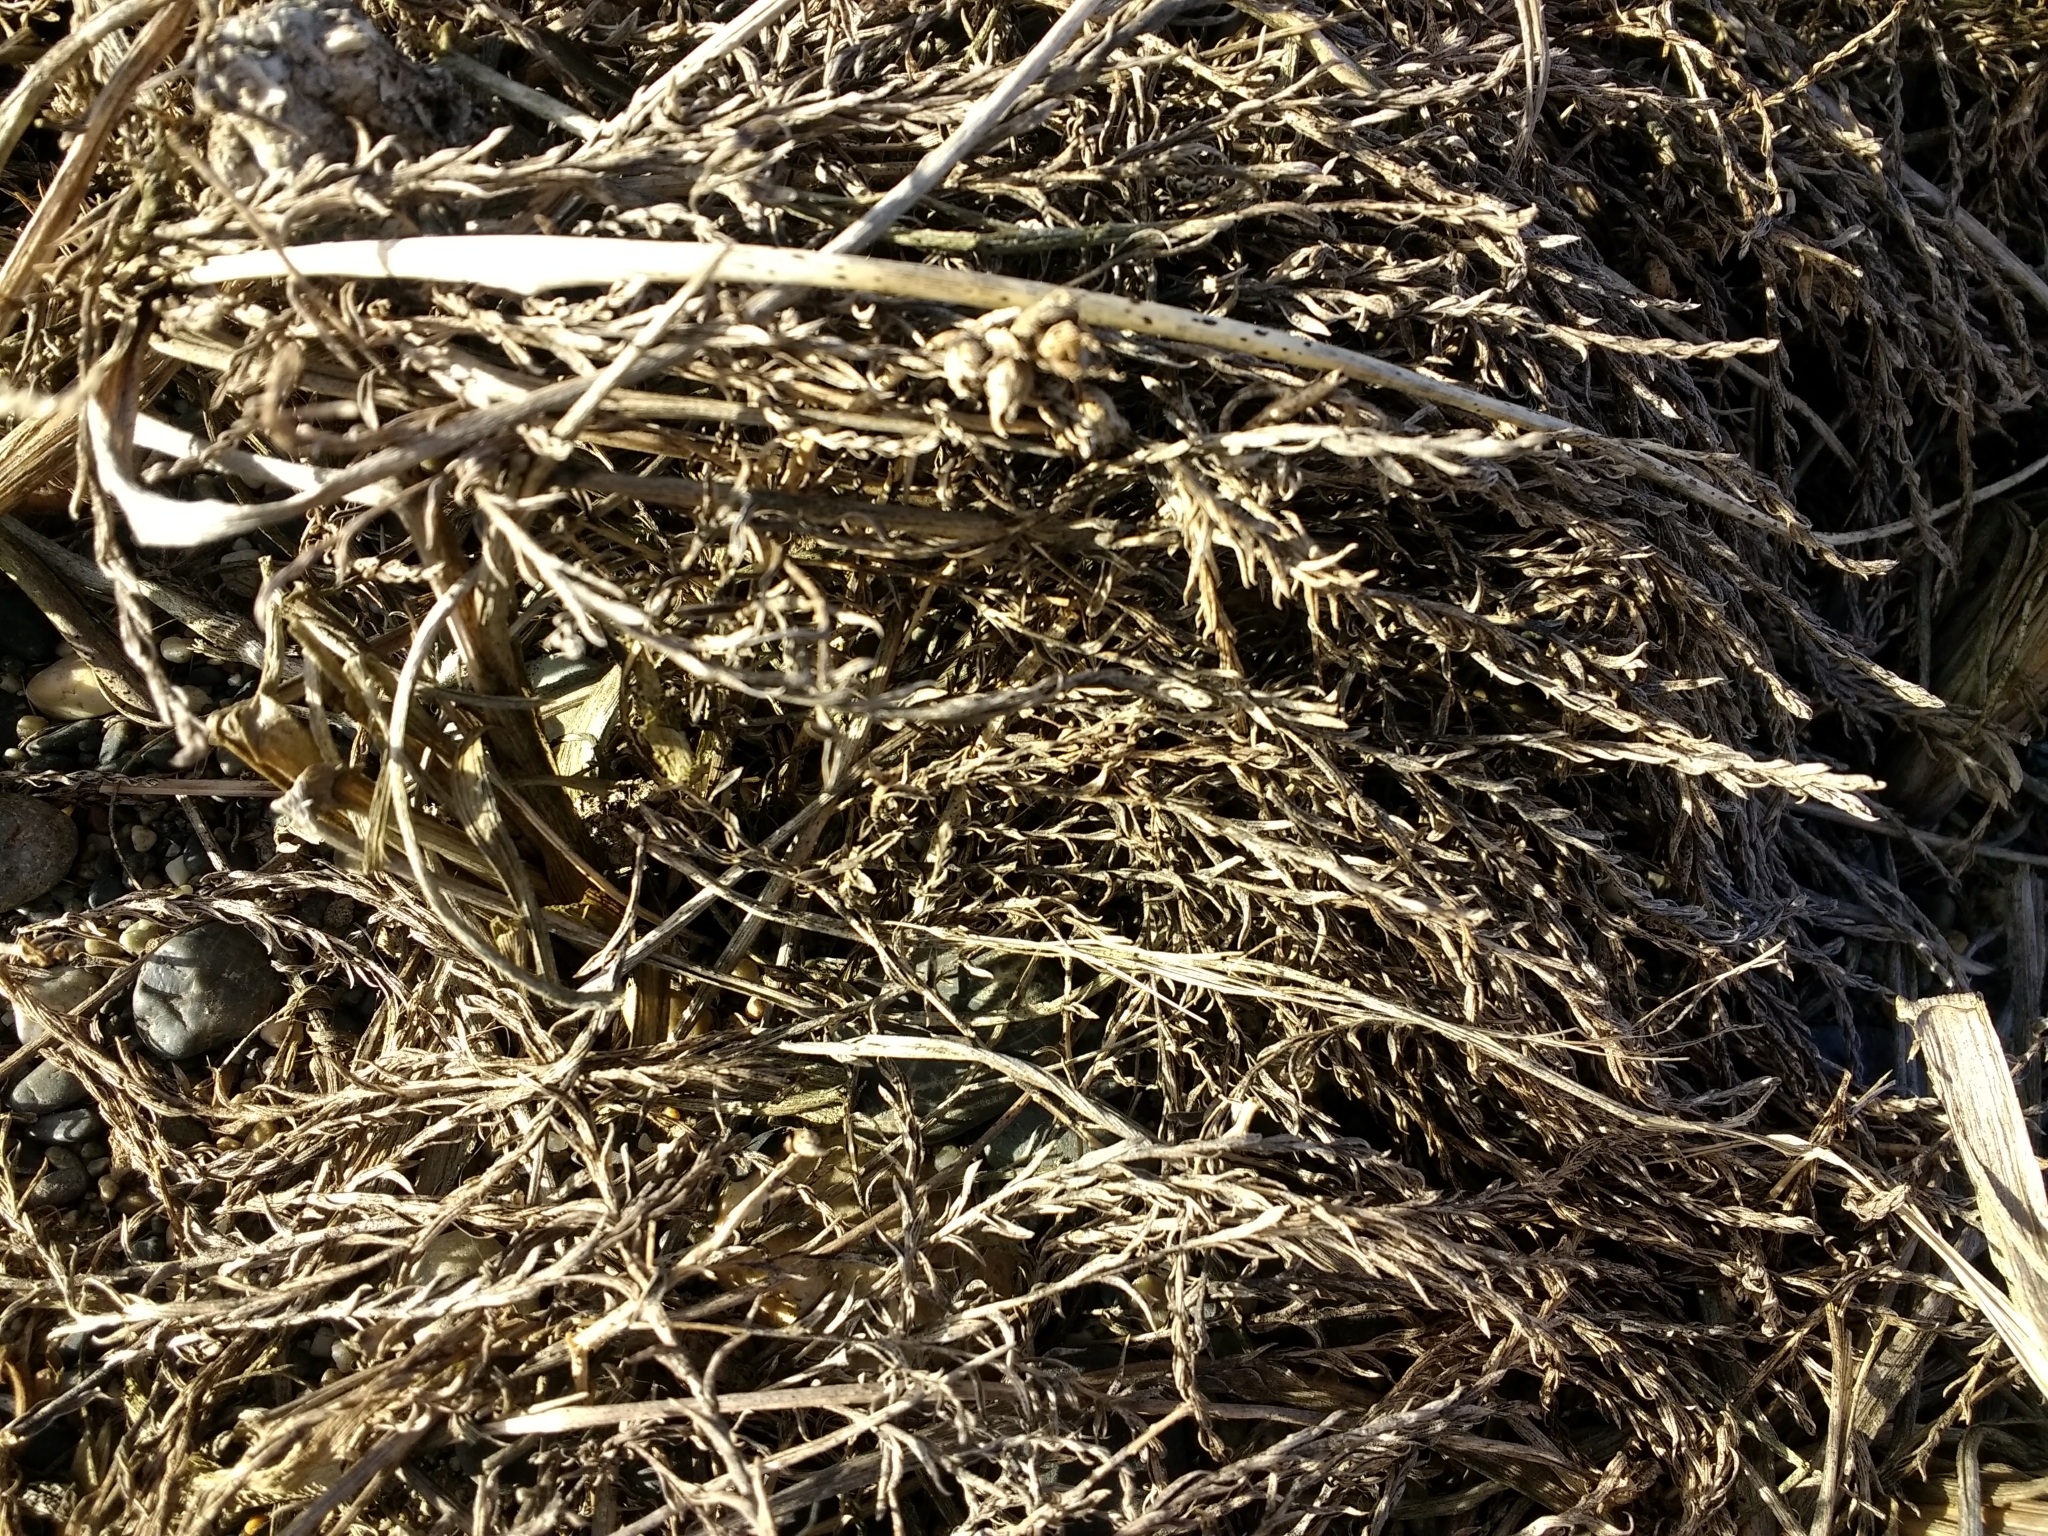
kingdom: Plantae
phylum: Tracheophyta
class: Magnoliopsida
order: Santalales
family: Schoepfiaceae
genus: Arjona
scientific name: Arjona patagonica
